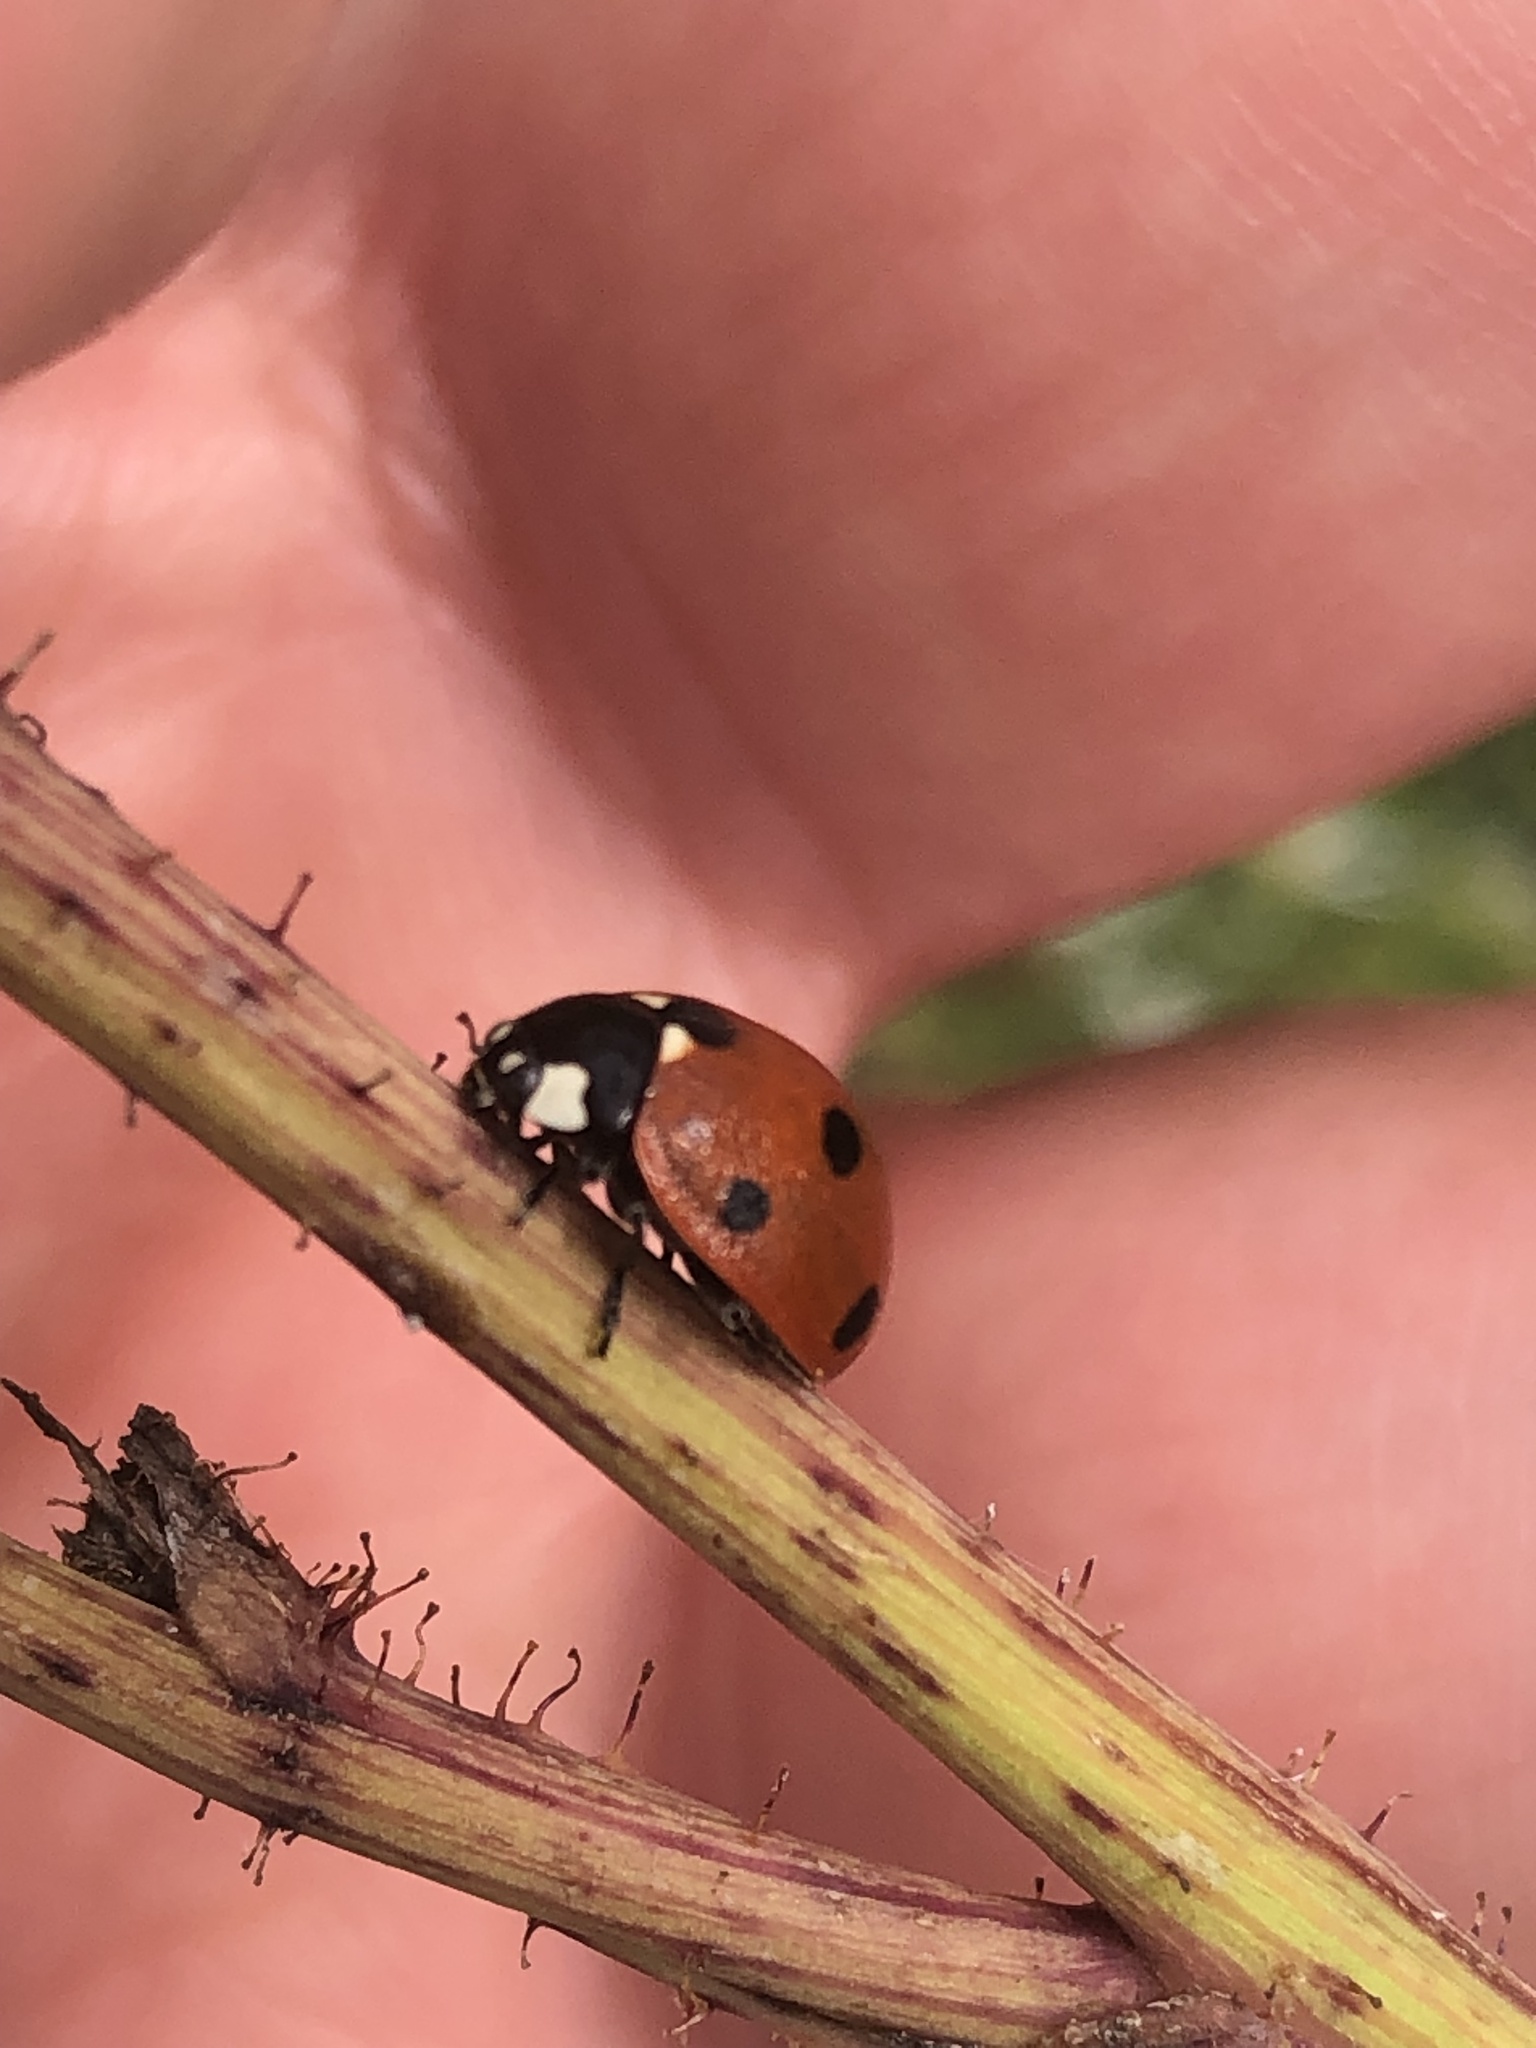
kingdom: Animalia
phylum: Arthropoda
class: Insecta
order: Coleoptera
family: Coccinellidae
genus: Coccinella
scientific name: Coccinella septempunctata
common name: Sevenspotted lady beetle
